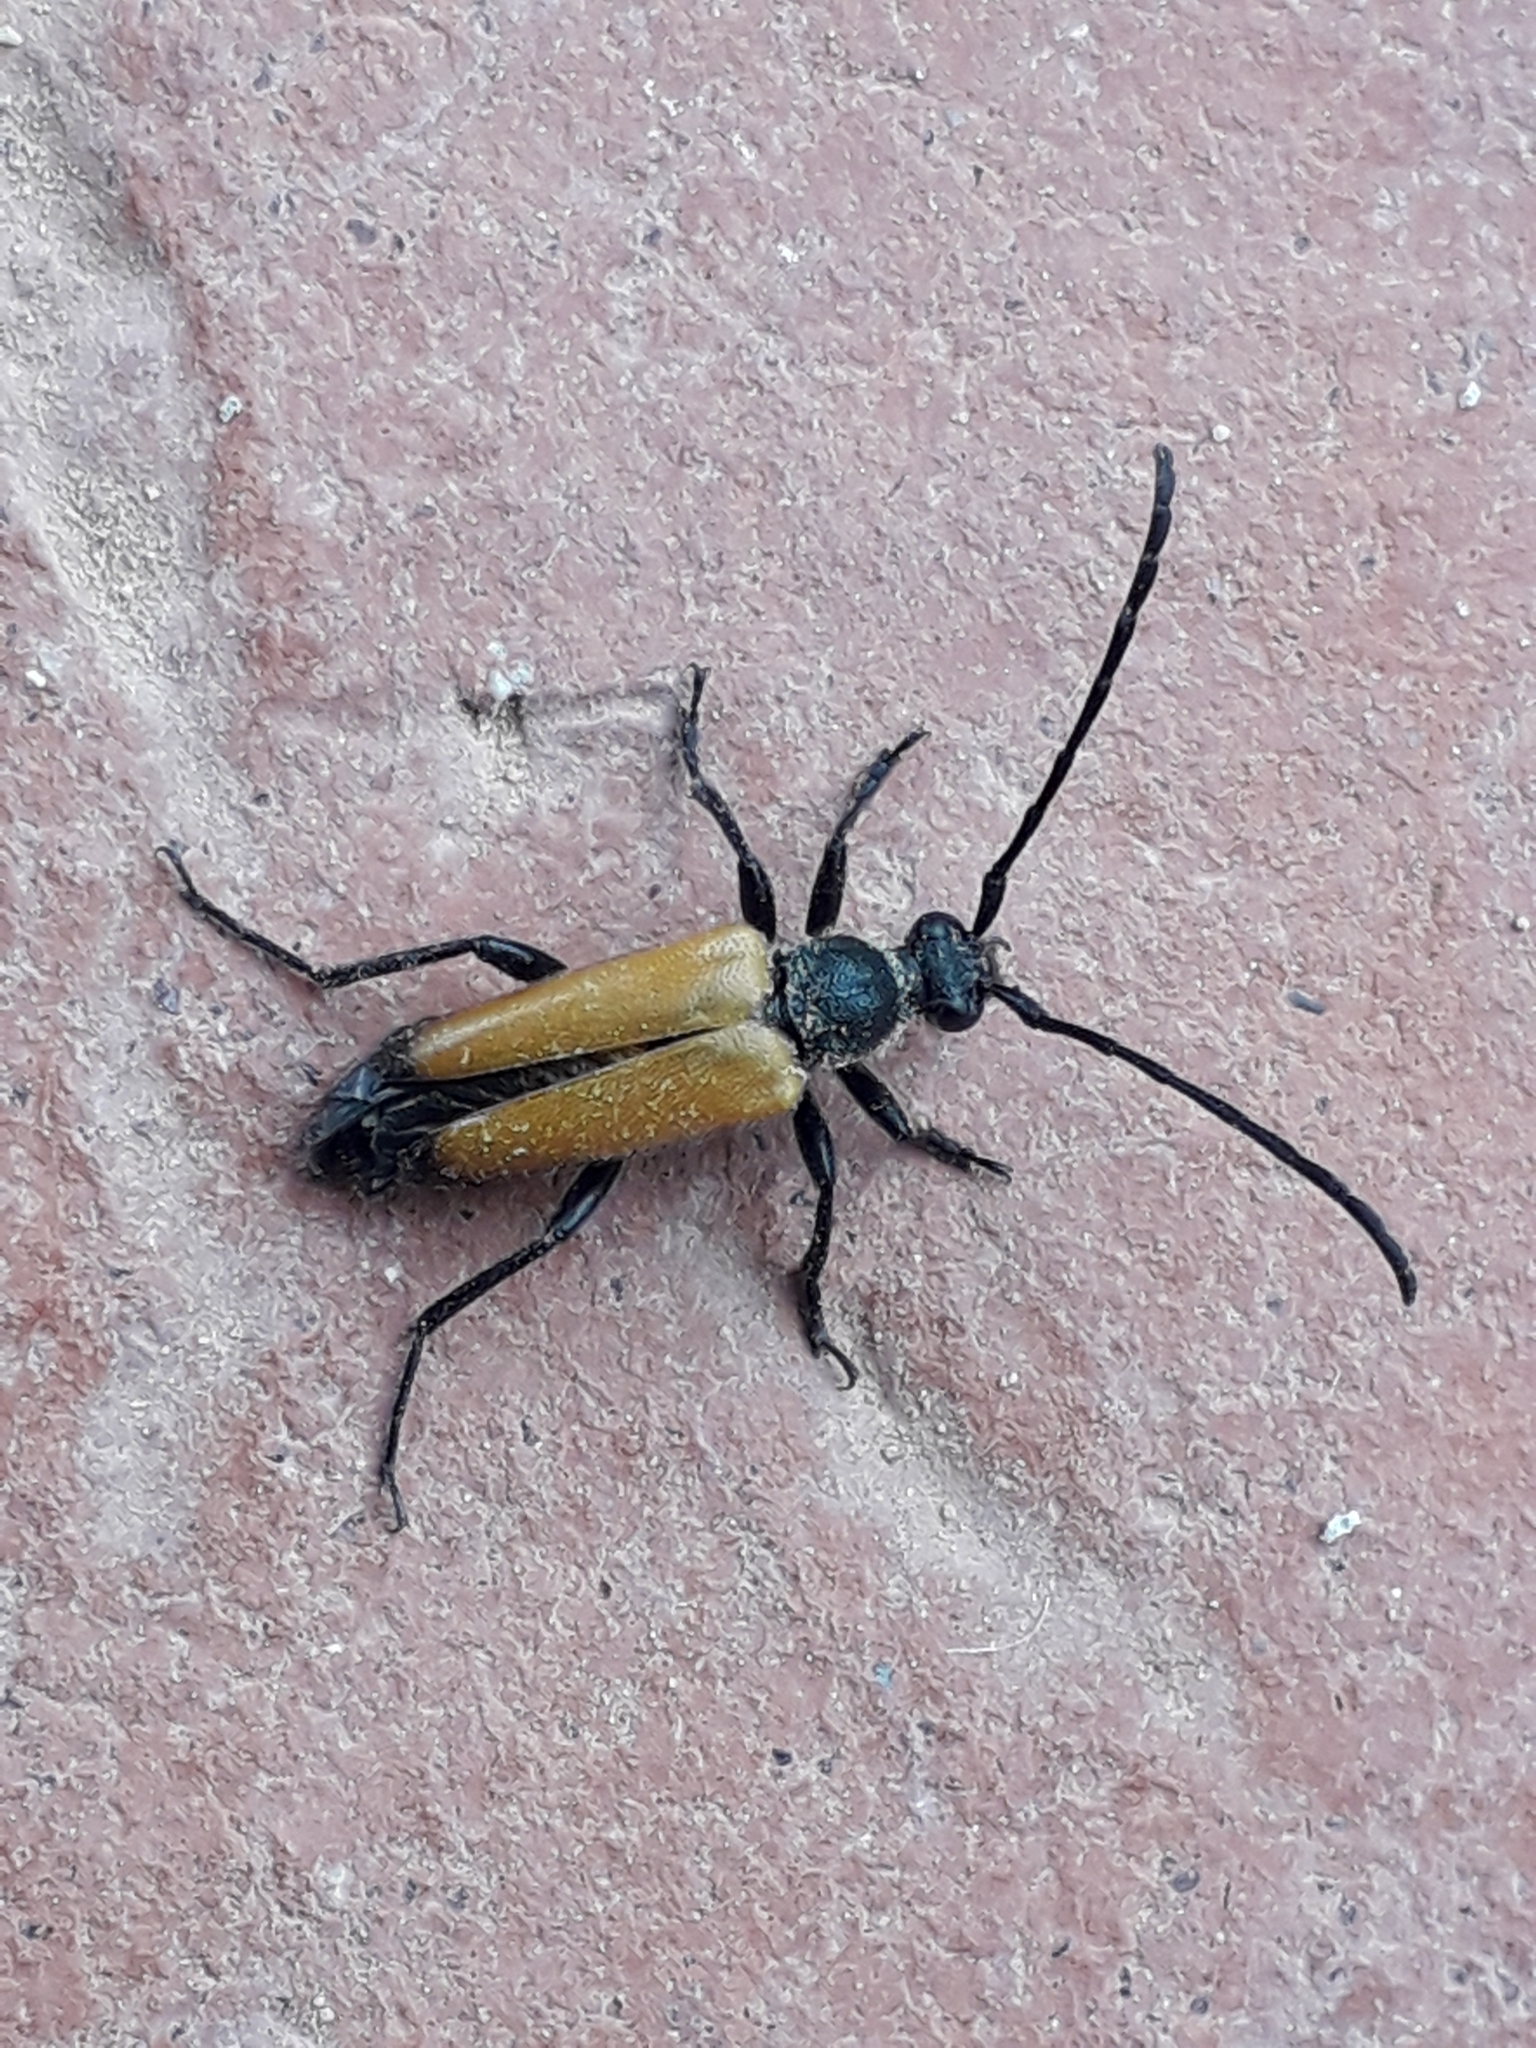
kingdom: Animalia
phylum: Arthropoda
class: Insecta
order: Coleoptera
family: Cerambycidae
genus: Paracorymbia
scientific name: Paracorymbia fulva
